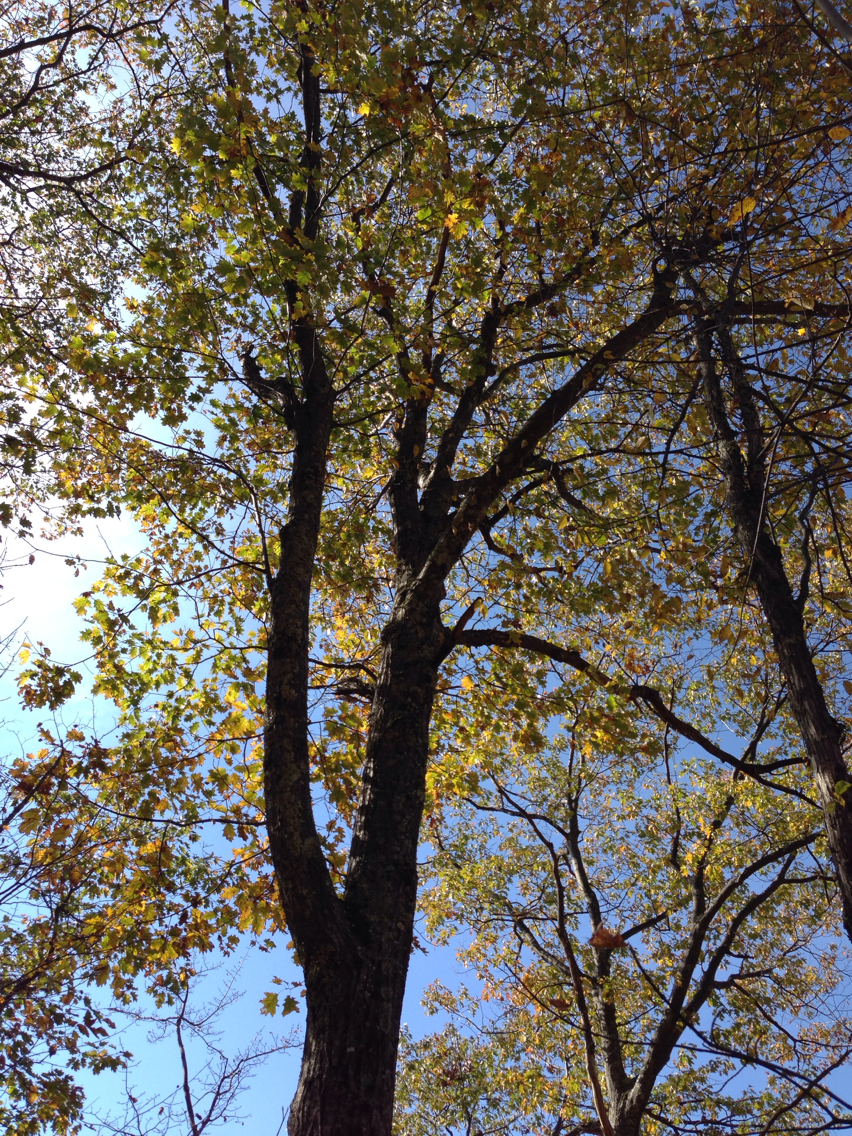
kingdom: Plantae
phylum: Tracheophyta
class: Magnoliopsida
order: Fagales
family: Fagaceae
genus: Quercus
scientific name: Quercus rubra
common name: Red oak
